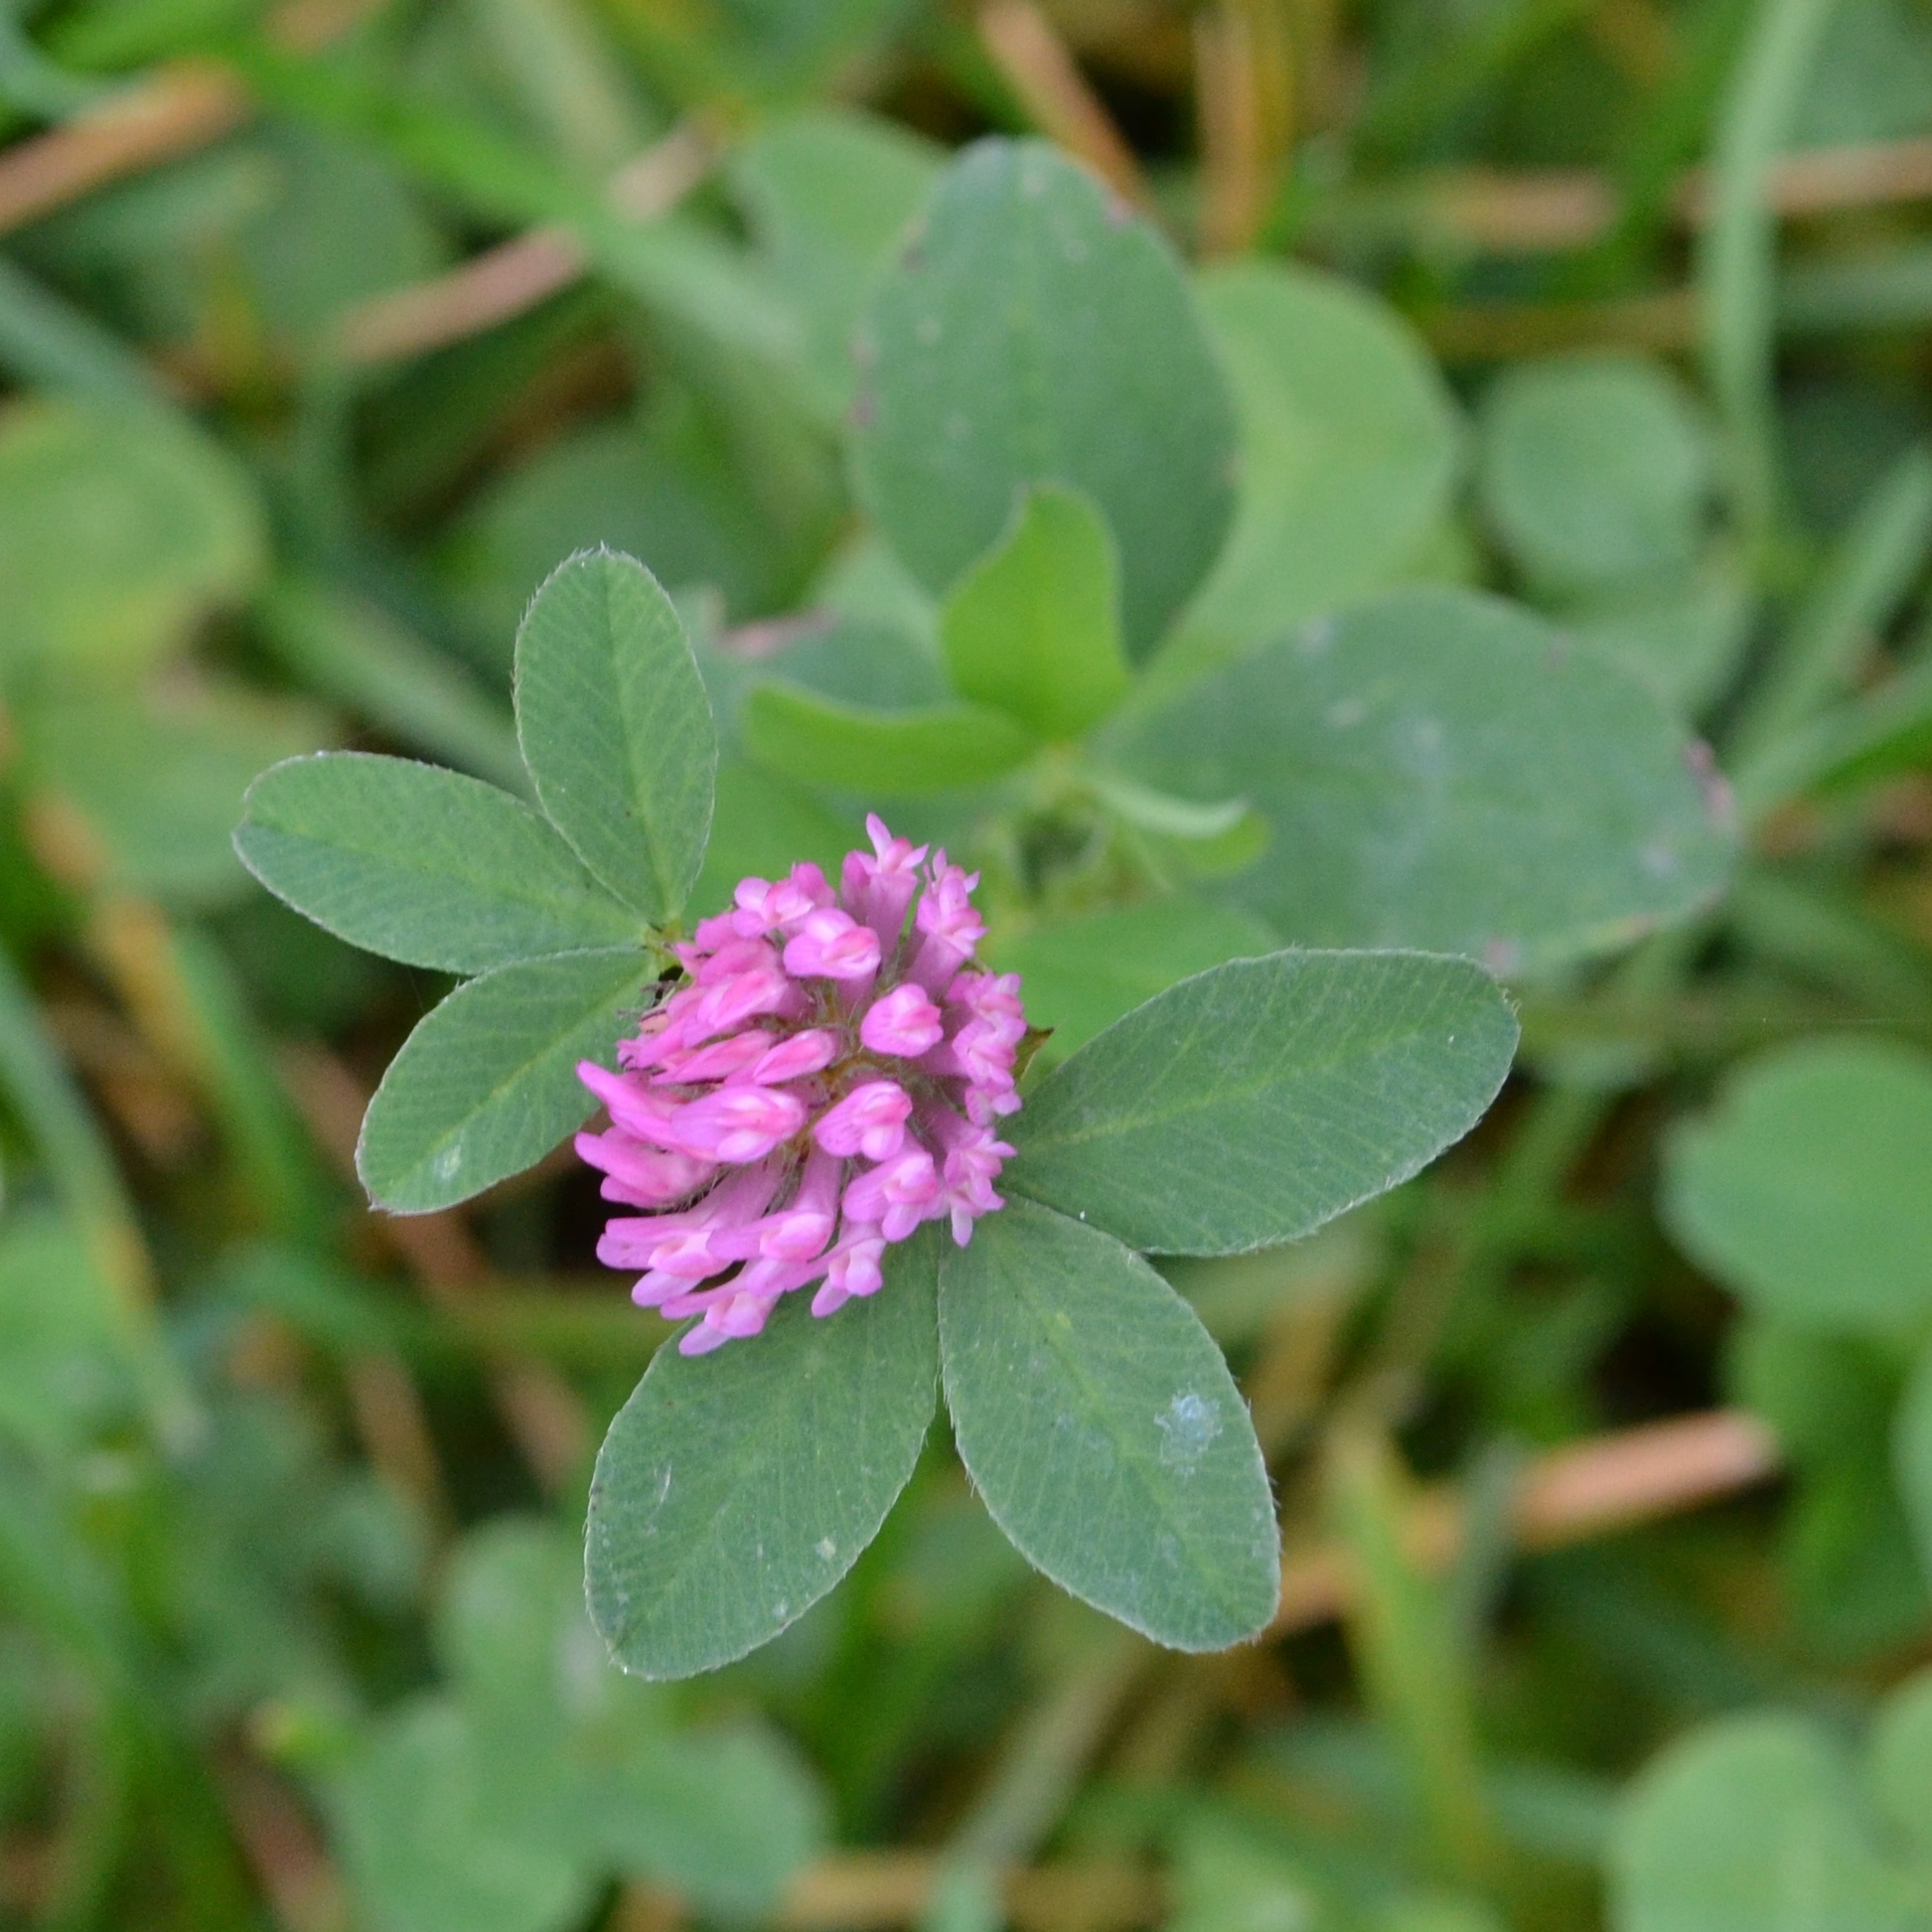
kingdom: Plantae
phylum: Tracheophyta
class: Magnoliopsida
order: Fabales
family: Fabaceae
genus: Trifolium
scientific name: Trifolium pratense
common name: Red clover
